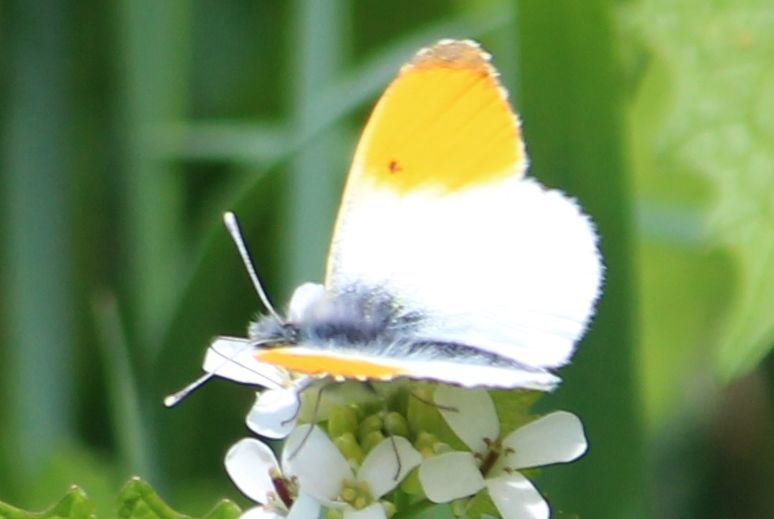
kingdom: Animalia
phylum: Arthropoda
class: Insecta
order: Lepidoptera
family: Pieridae
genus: Anthocharis
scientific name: Anthocharis cardamines
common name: Orange-tip
